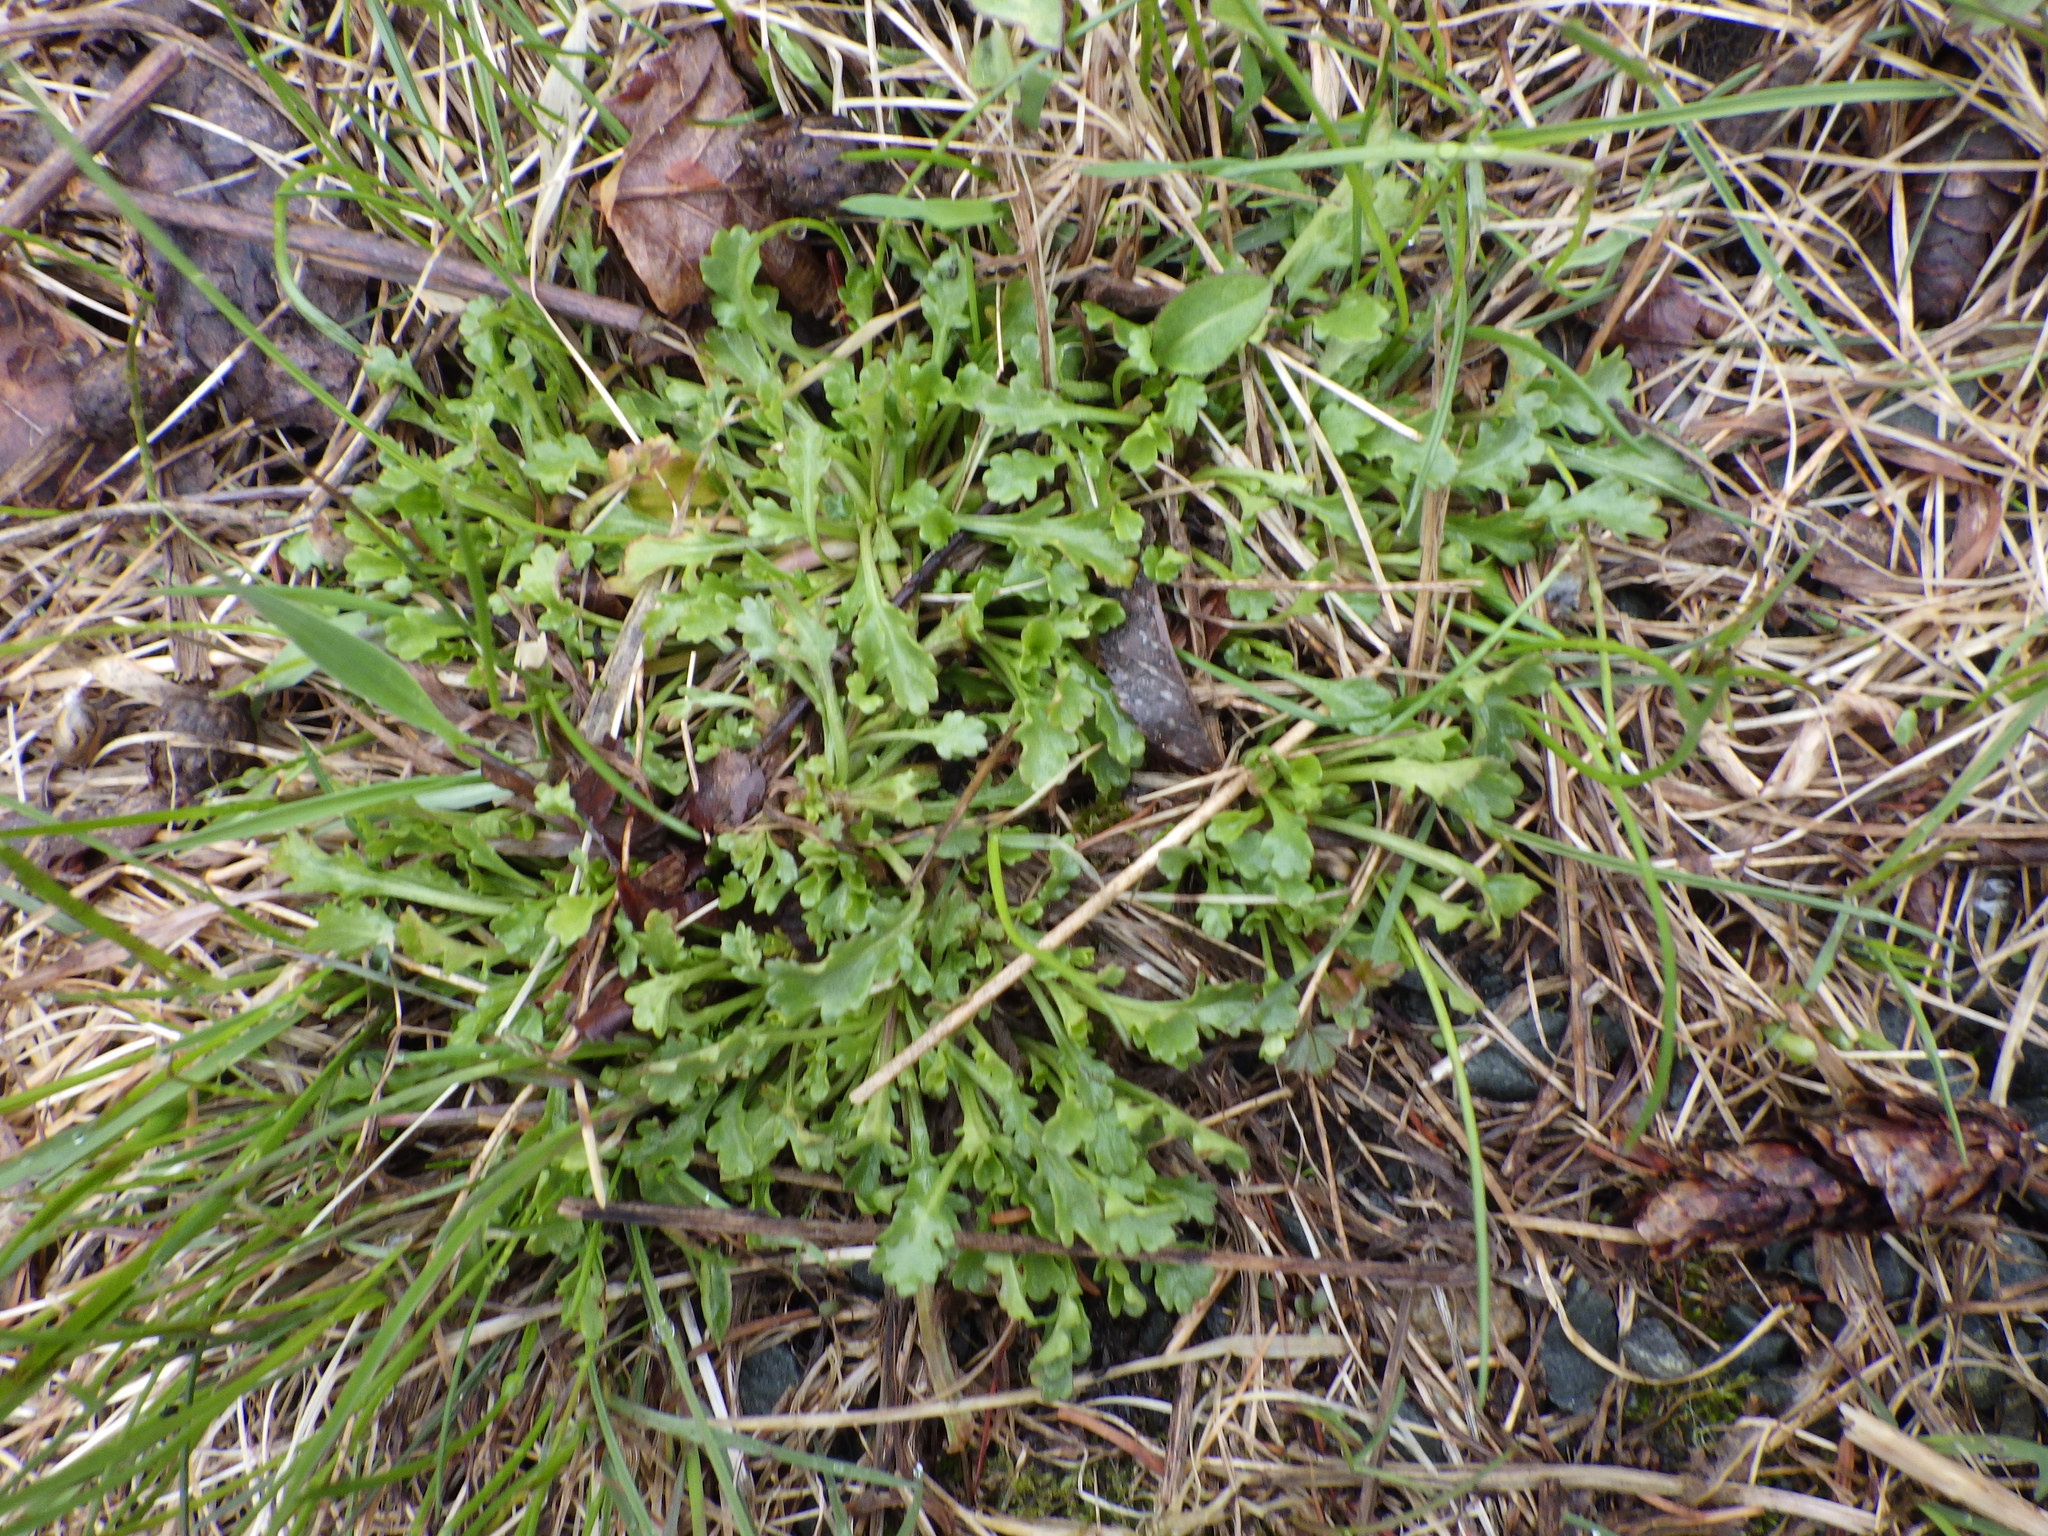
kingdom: Plantae
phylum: Tracheophyta
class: Magnoliopsida
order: Asterales
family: Asteraceae
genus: Leucanthemum
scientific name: Leucanthemum vulgare
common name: Oxeye daisy
